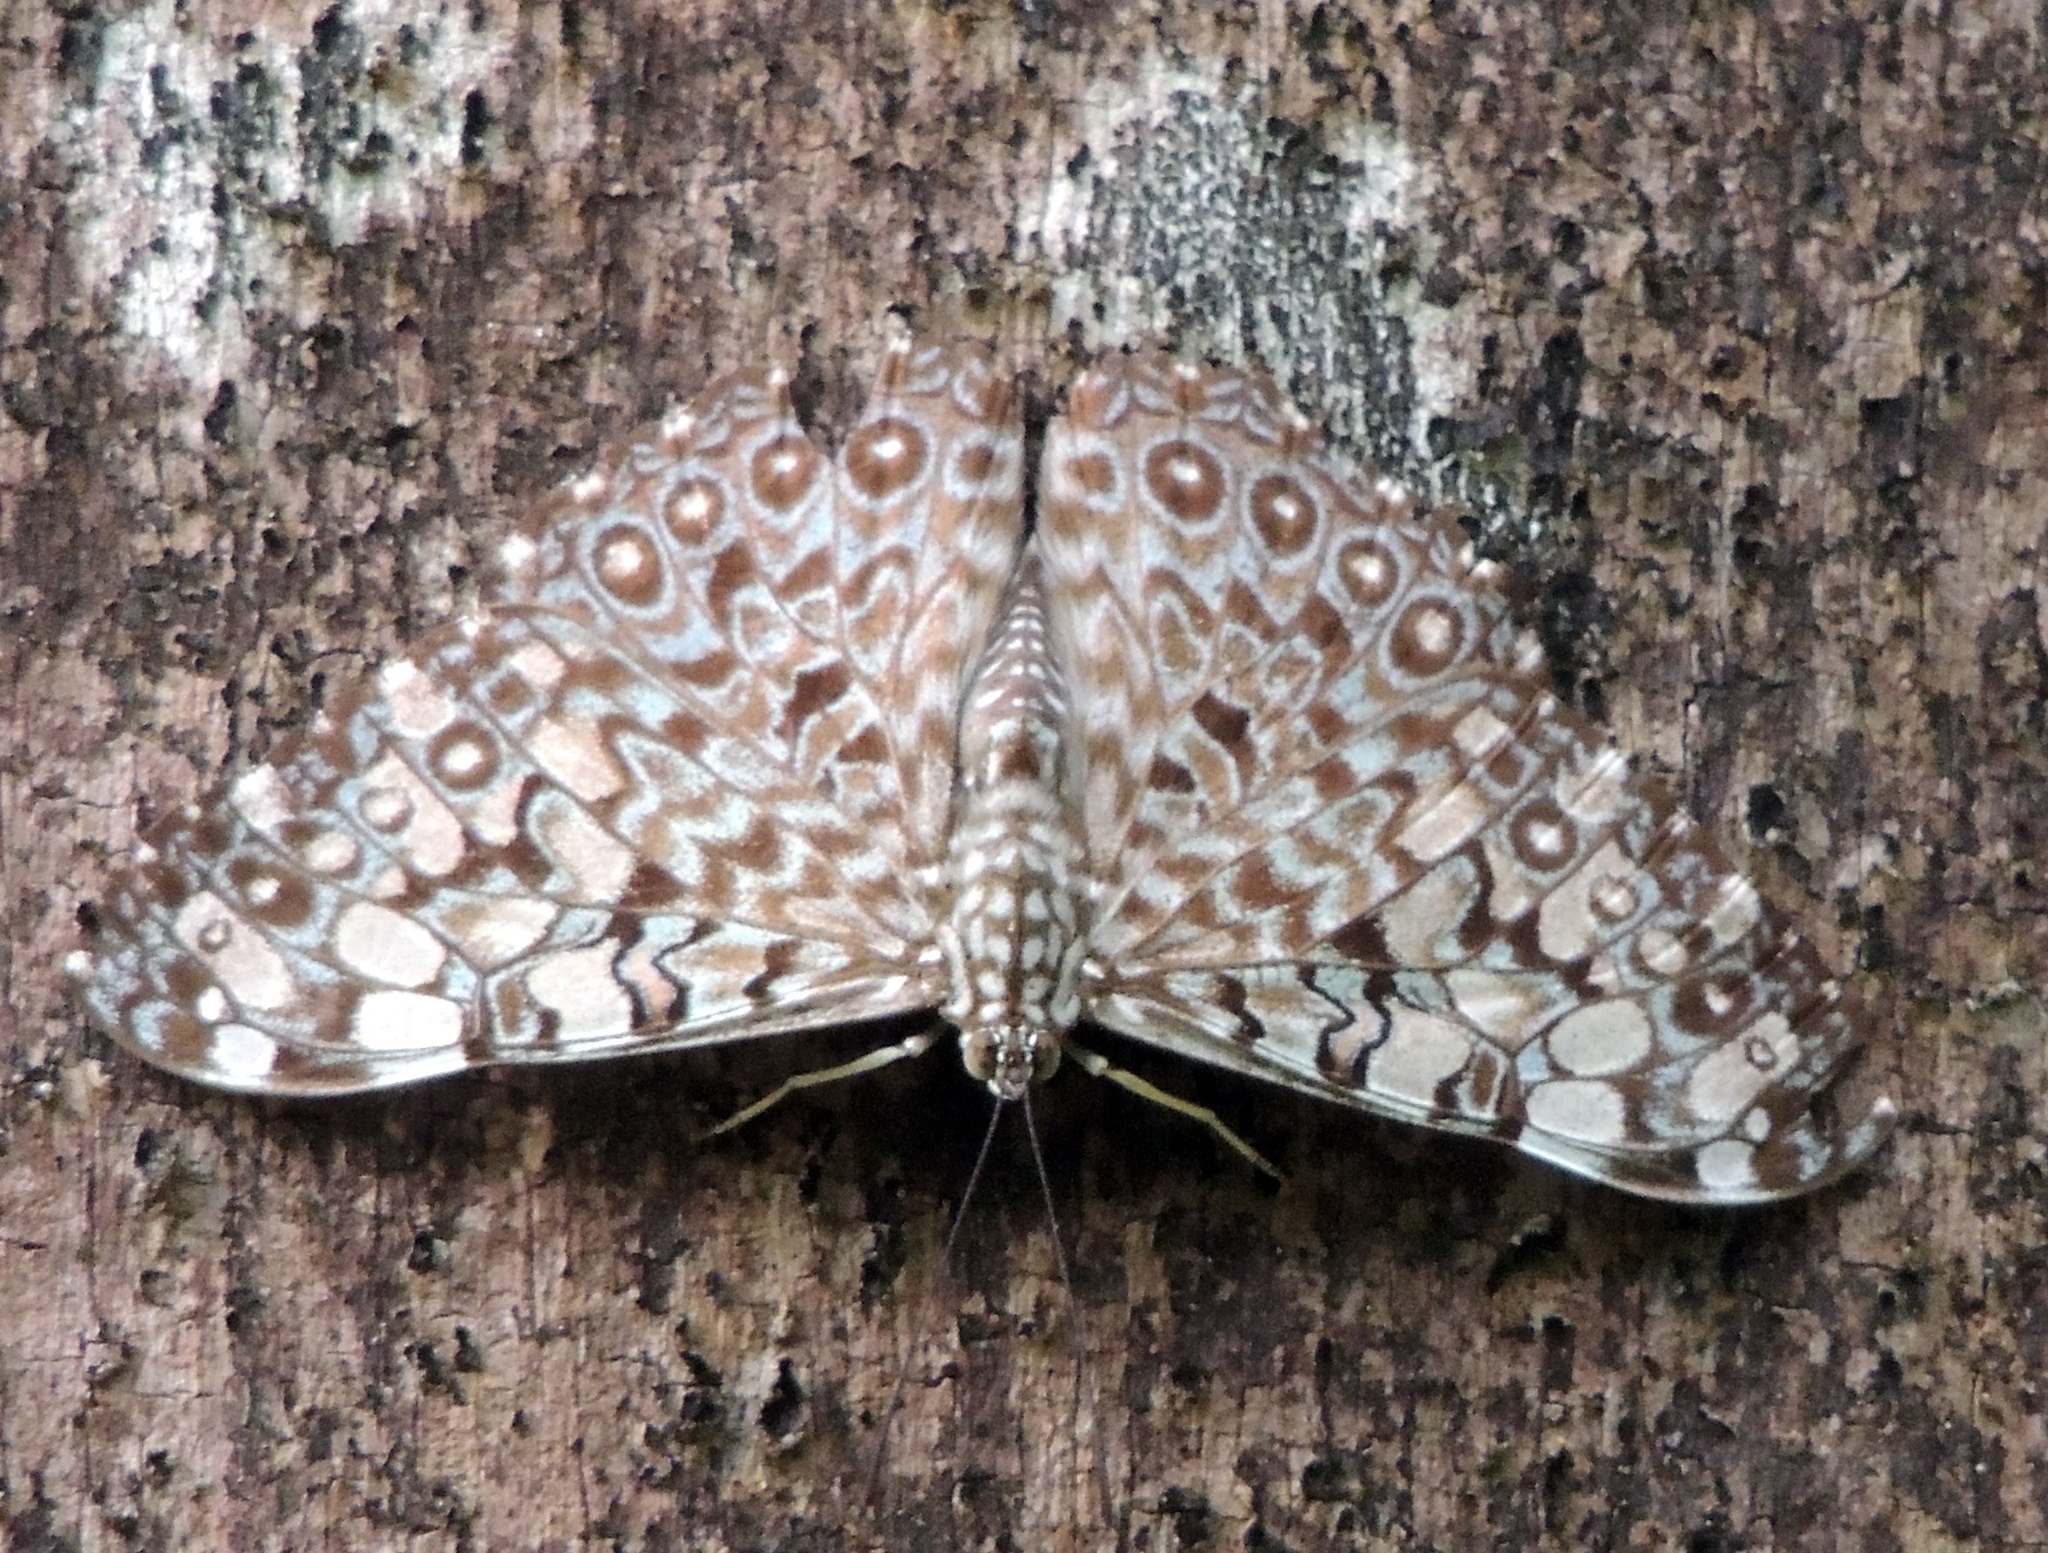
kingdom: Animalia
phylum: Arthropoda
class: Insecta
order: Lepidoptera
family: Nymphalidae
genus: Hamadryas
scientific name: Hamadryas feronia
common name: Variable cracker
